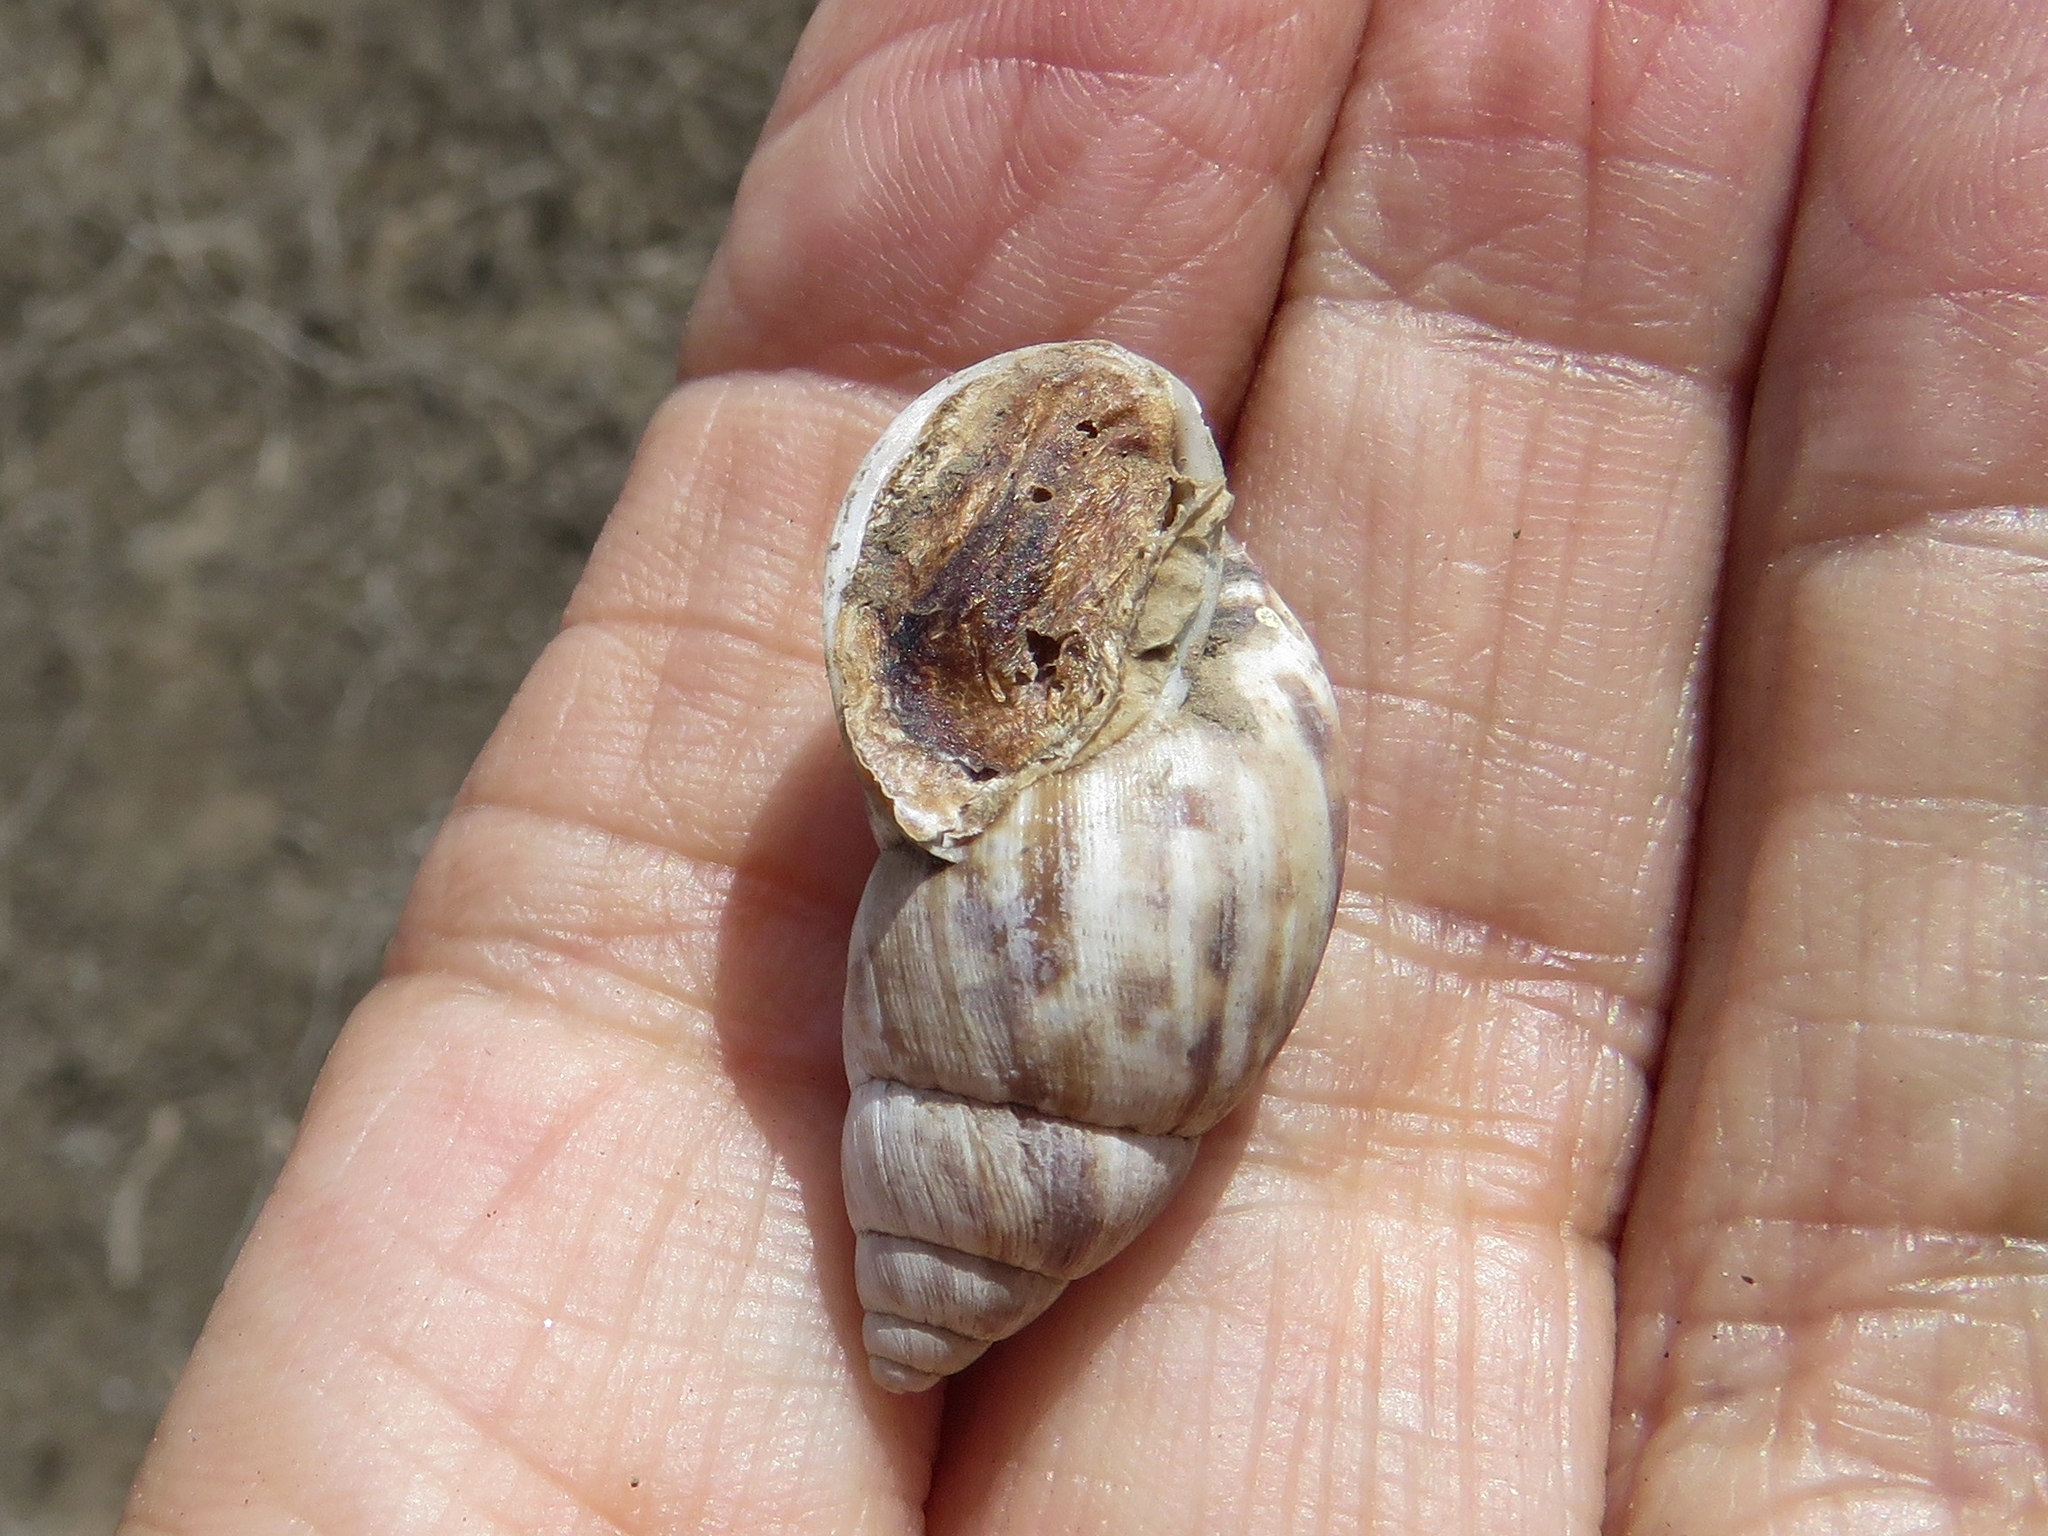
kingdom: Animalia
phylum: Mollusca
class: Gastropoda
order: Stylommatophora
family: Bulimulidae
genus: Scutalus
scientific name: Scutalus versicolor
